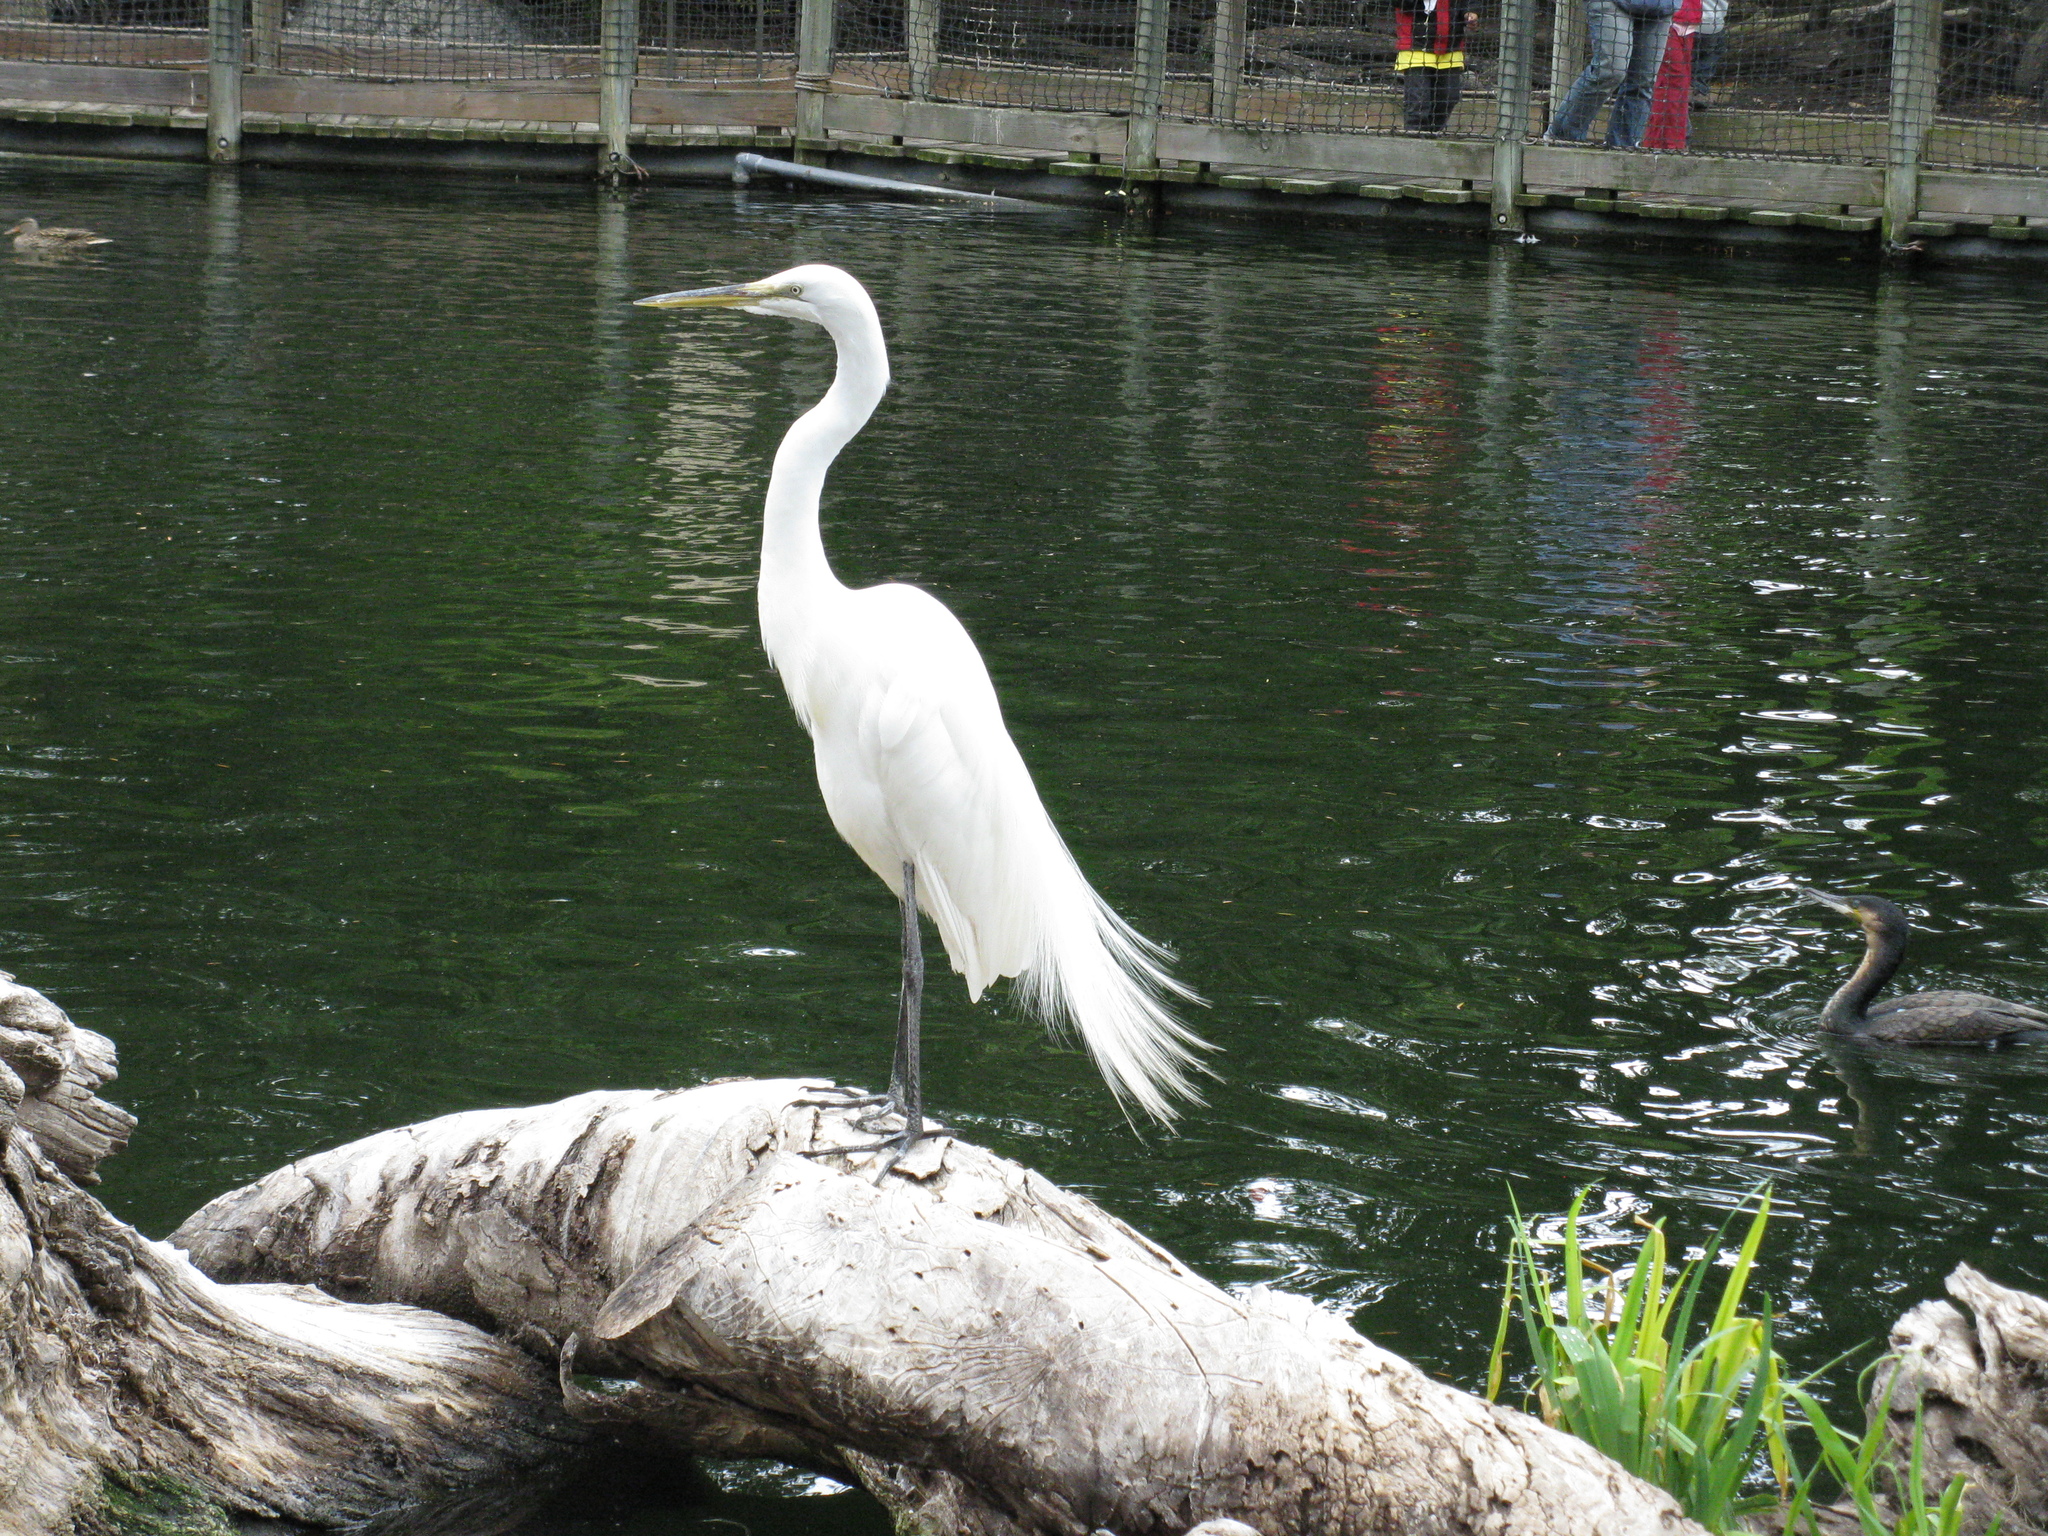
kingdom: Animalia
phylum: Chordata
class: Aves
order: Pelecaniformes
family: Ardeidae
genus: Ardea
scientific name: Ardea alba
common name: Great egret
